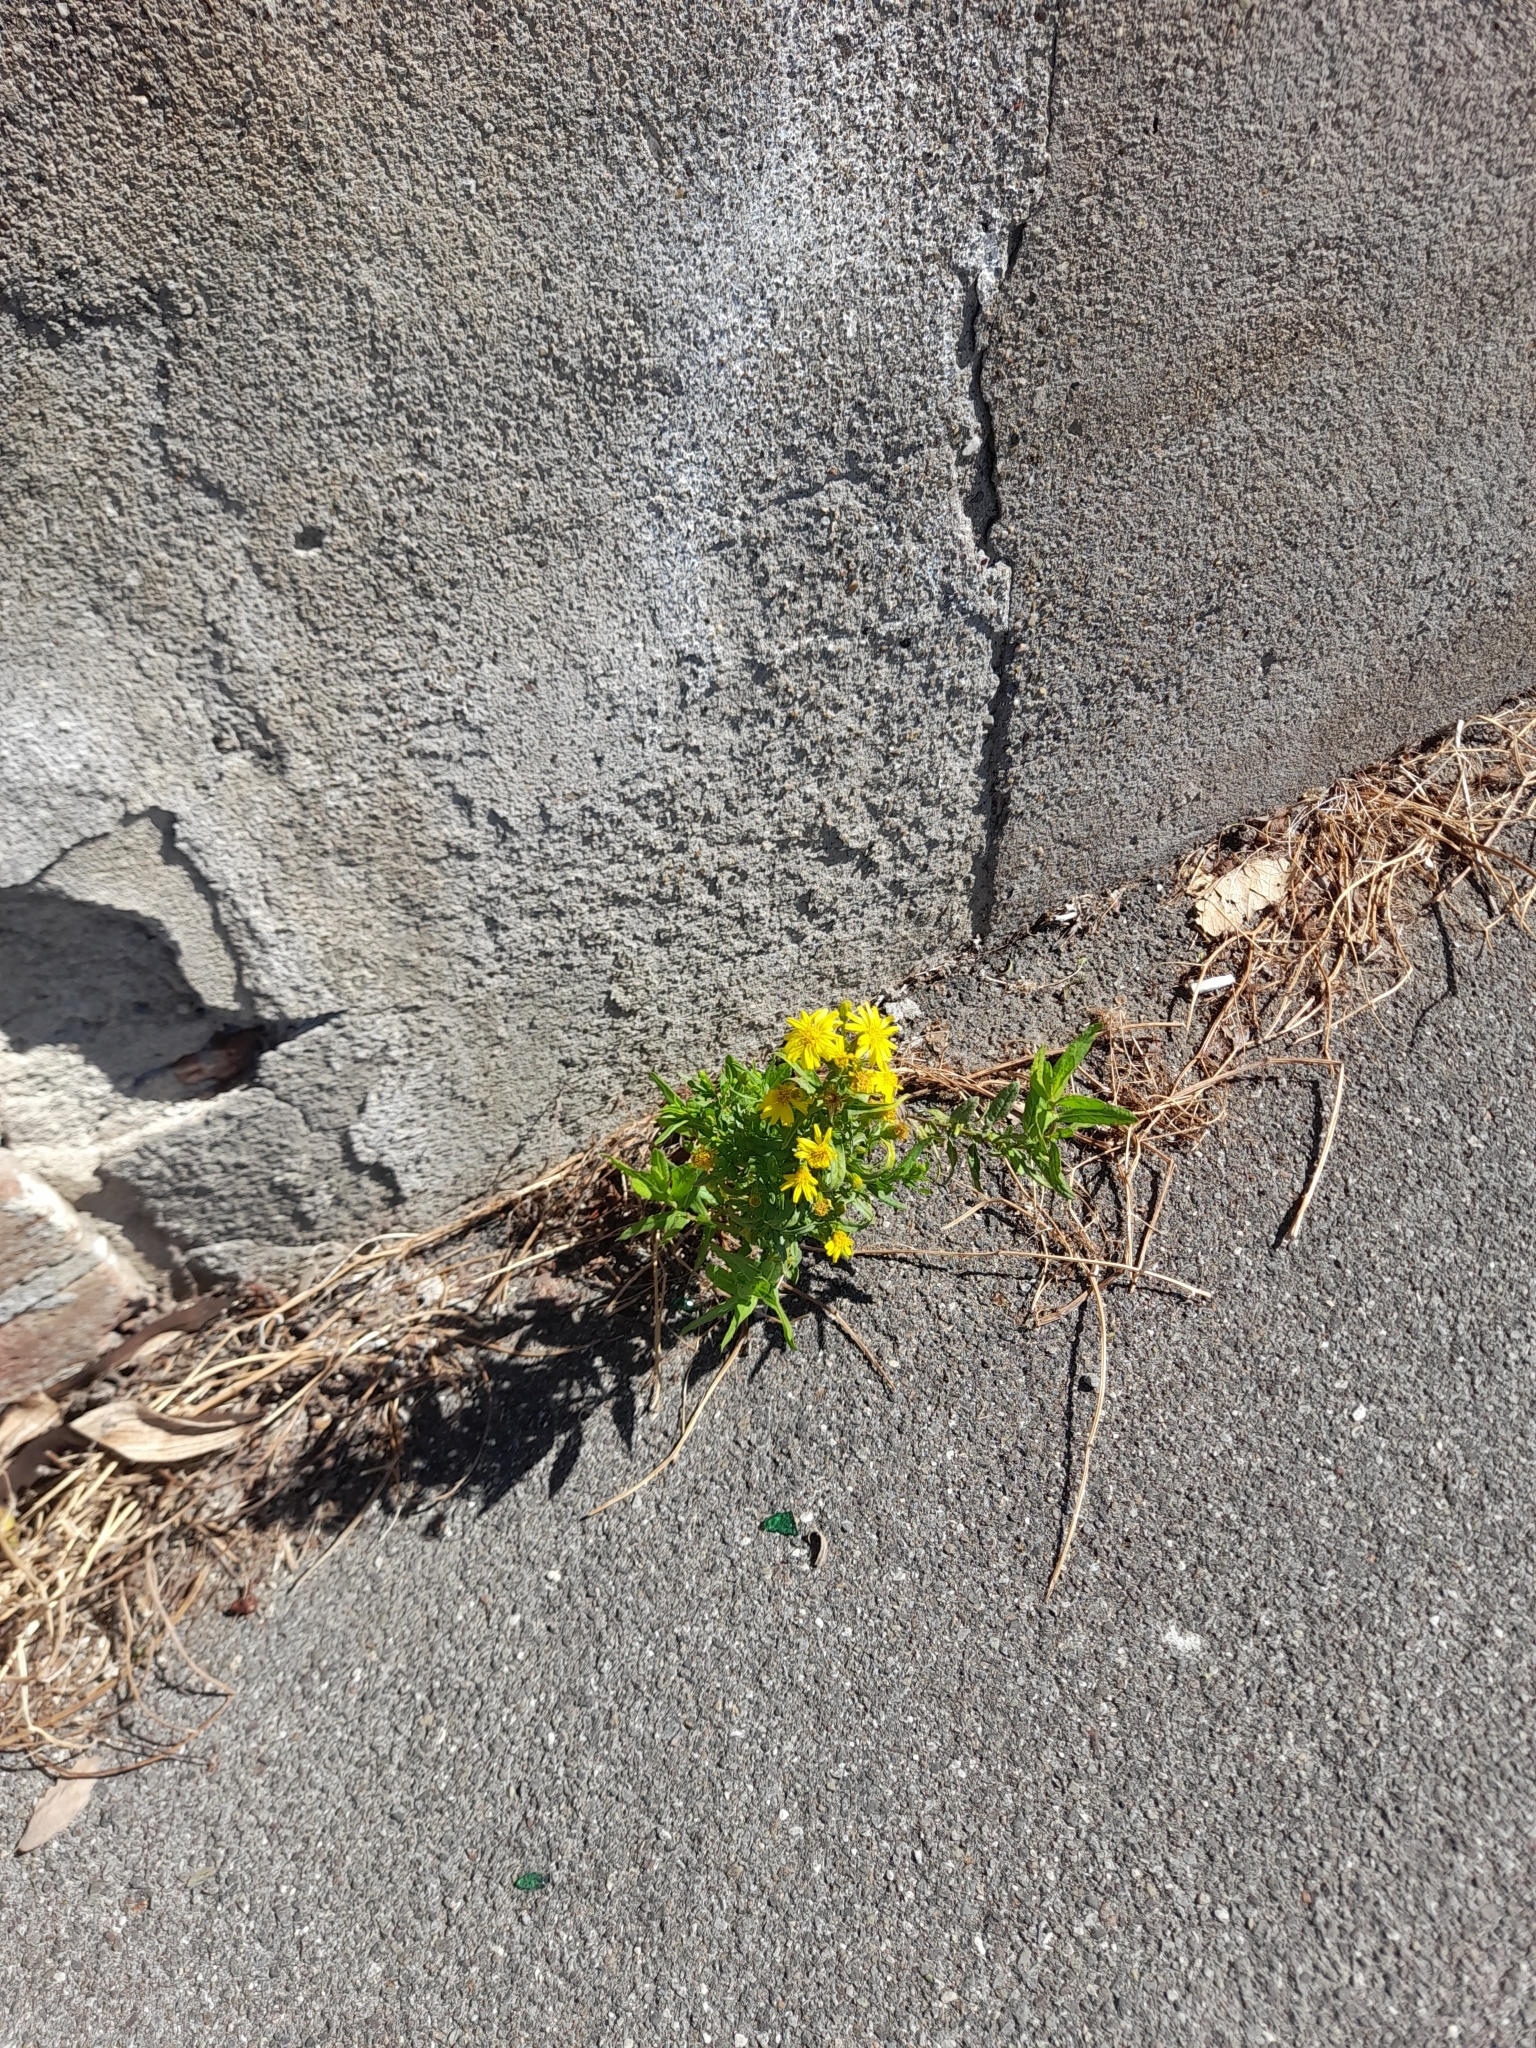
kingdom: Plantae
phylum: Tracheophyta
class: Magnoliopsida
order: Asterales
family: Asteraceae
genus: Dittrichia
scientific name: Dittrichia viscosa
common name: Woody fleabane
